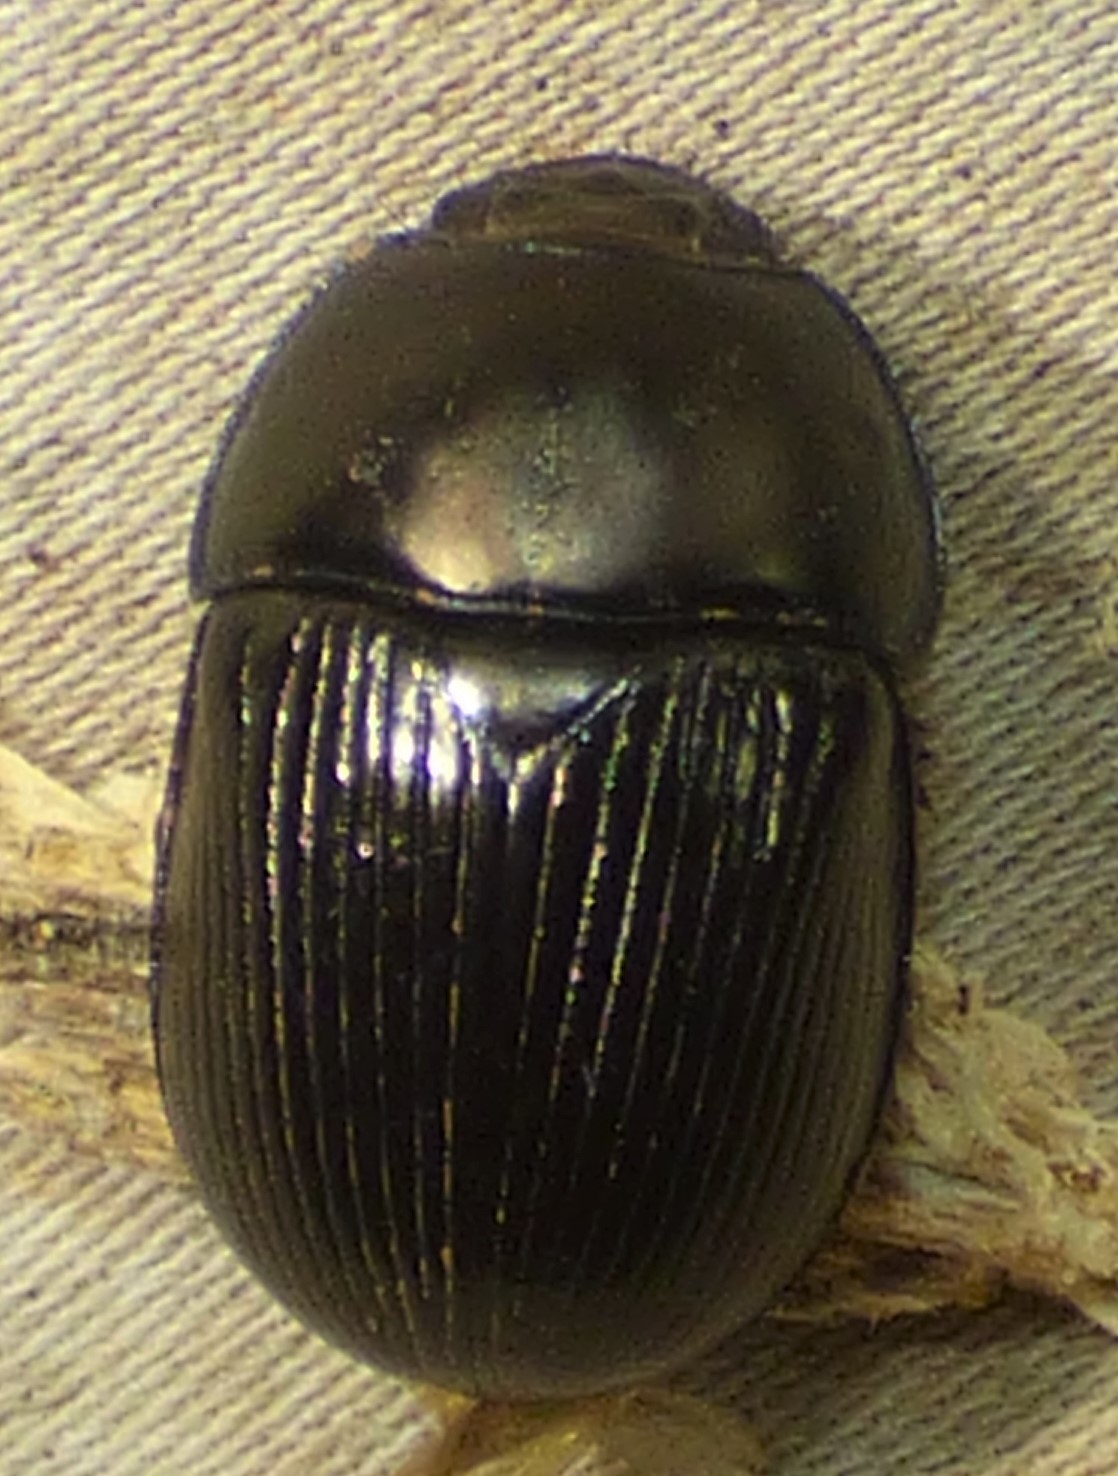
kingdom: Animalia
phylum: Arthropoda
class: Insecta
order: Coleoptera
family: Geotrupidae
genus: Cnemotrupes
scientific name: Cnemotrupes semiopacus
